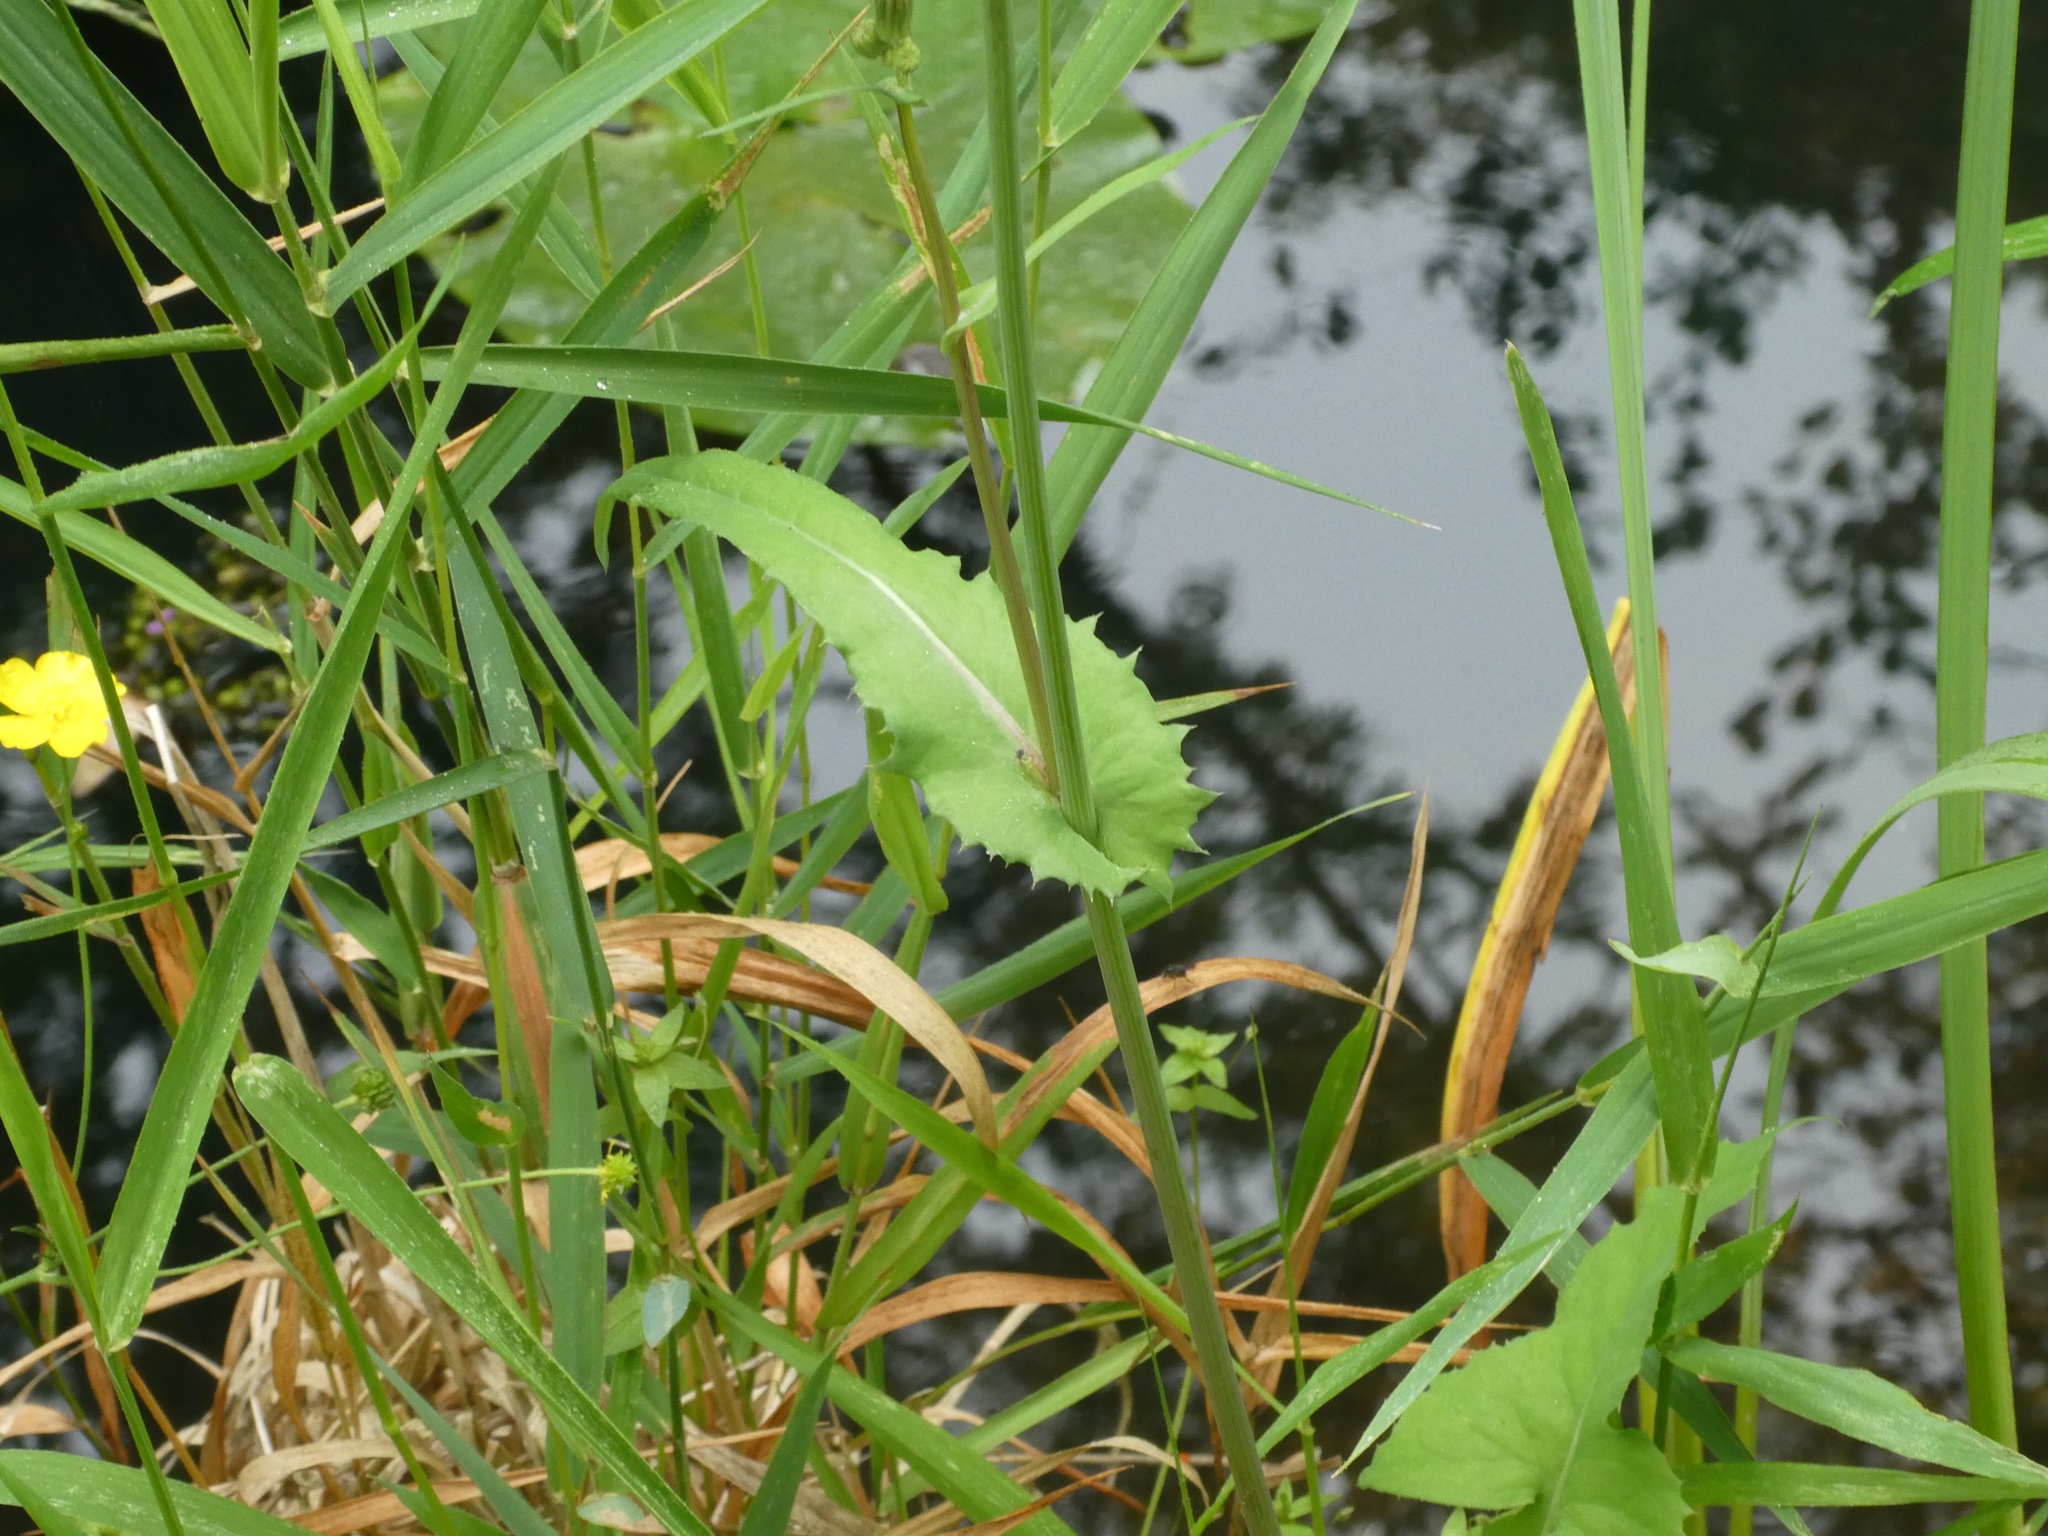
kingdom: Plantae
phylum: Tracheophyta
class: Magnoliopsida
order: Asterales
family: Asteraceae
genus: Sonchus
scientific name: Sonchus oleraceus
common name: Common sowthistle
